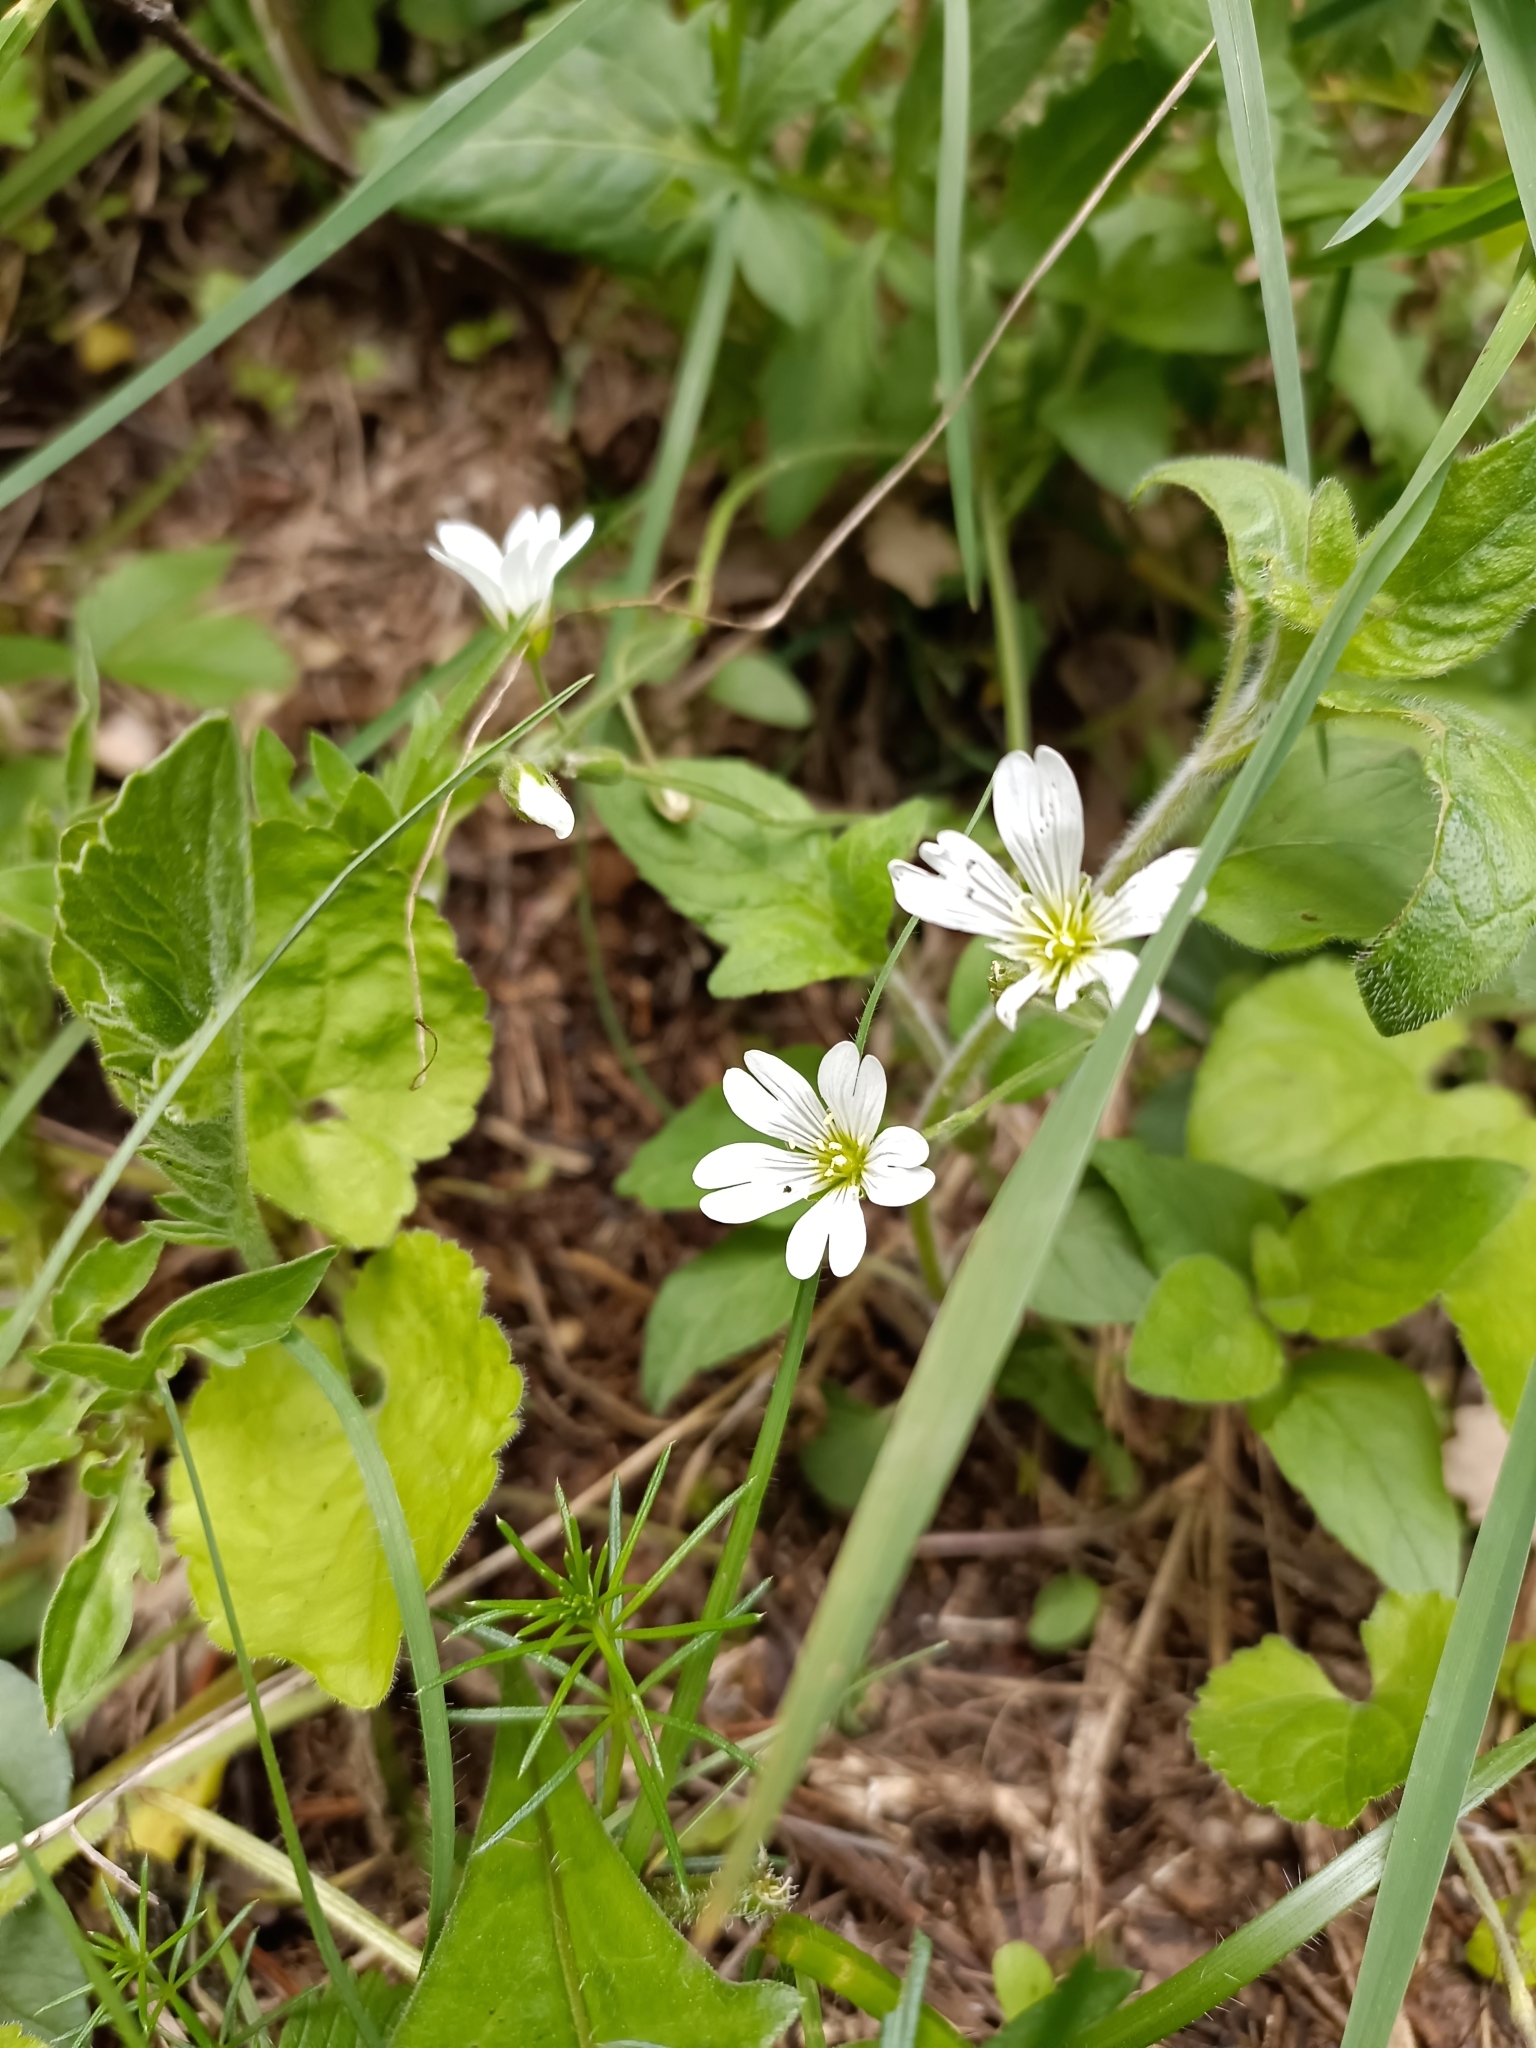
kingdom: Plantae
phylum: Tracheophyta
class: Magnoliopsida
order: Caryophyllales
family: Caryophyllaceae
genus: Cerastium
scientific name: Cerastium arvense
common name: Field mouse-ear
